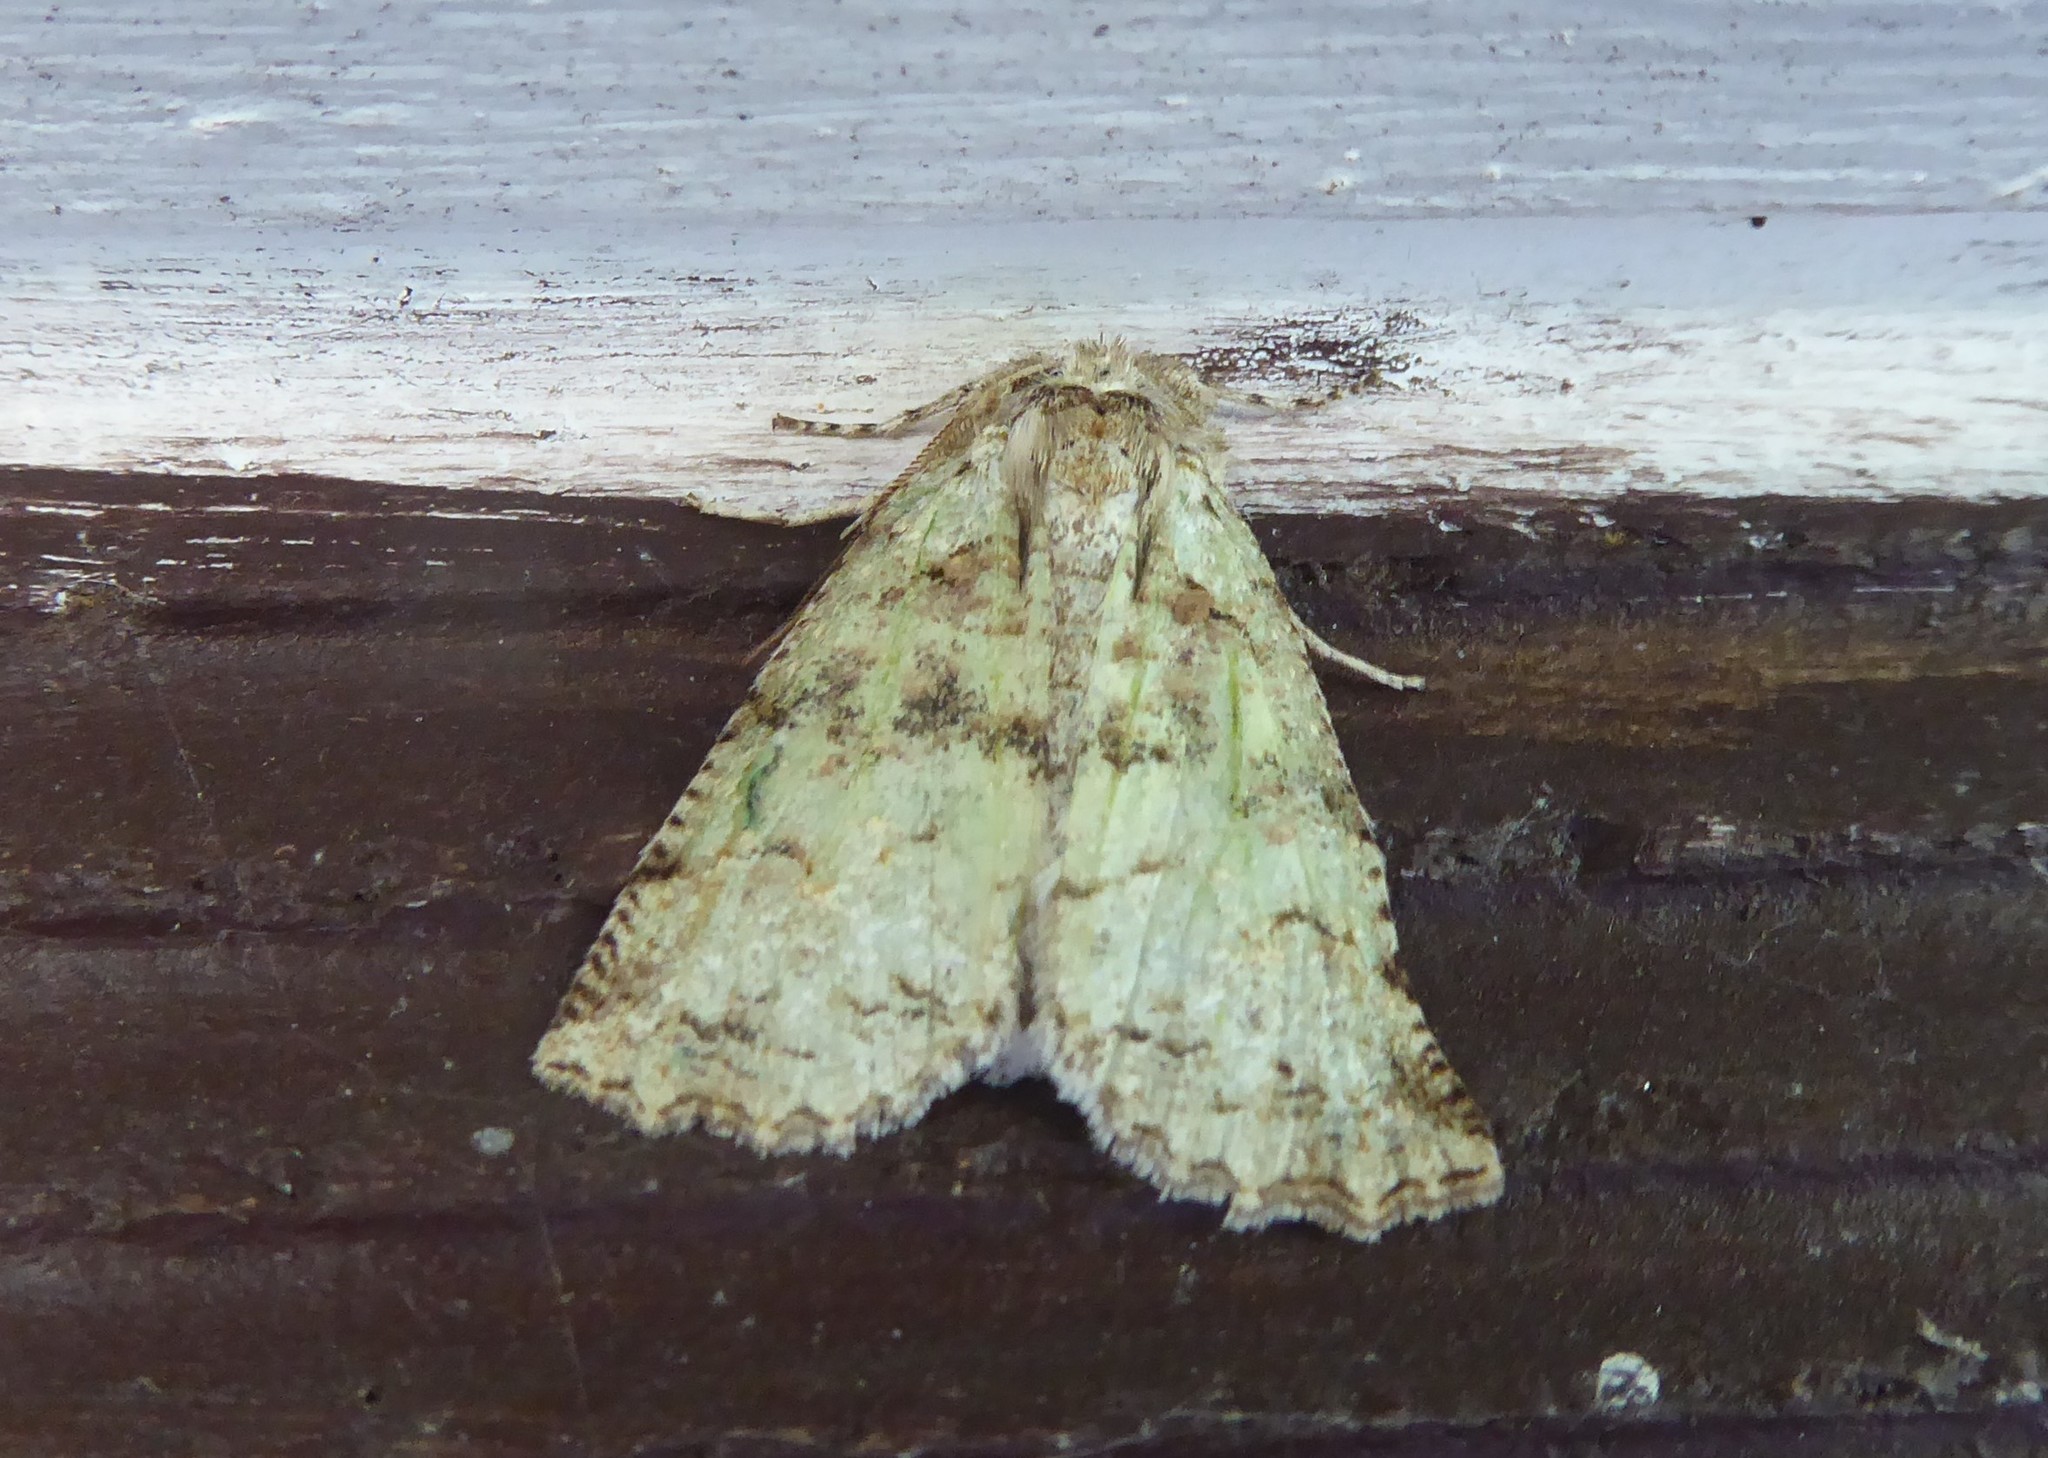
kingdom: Animalia
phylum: Arthropoda
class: Insecta
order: Lepidoptera
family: Geometridae
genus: Declana
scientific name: Declana floccosa
